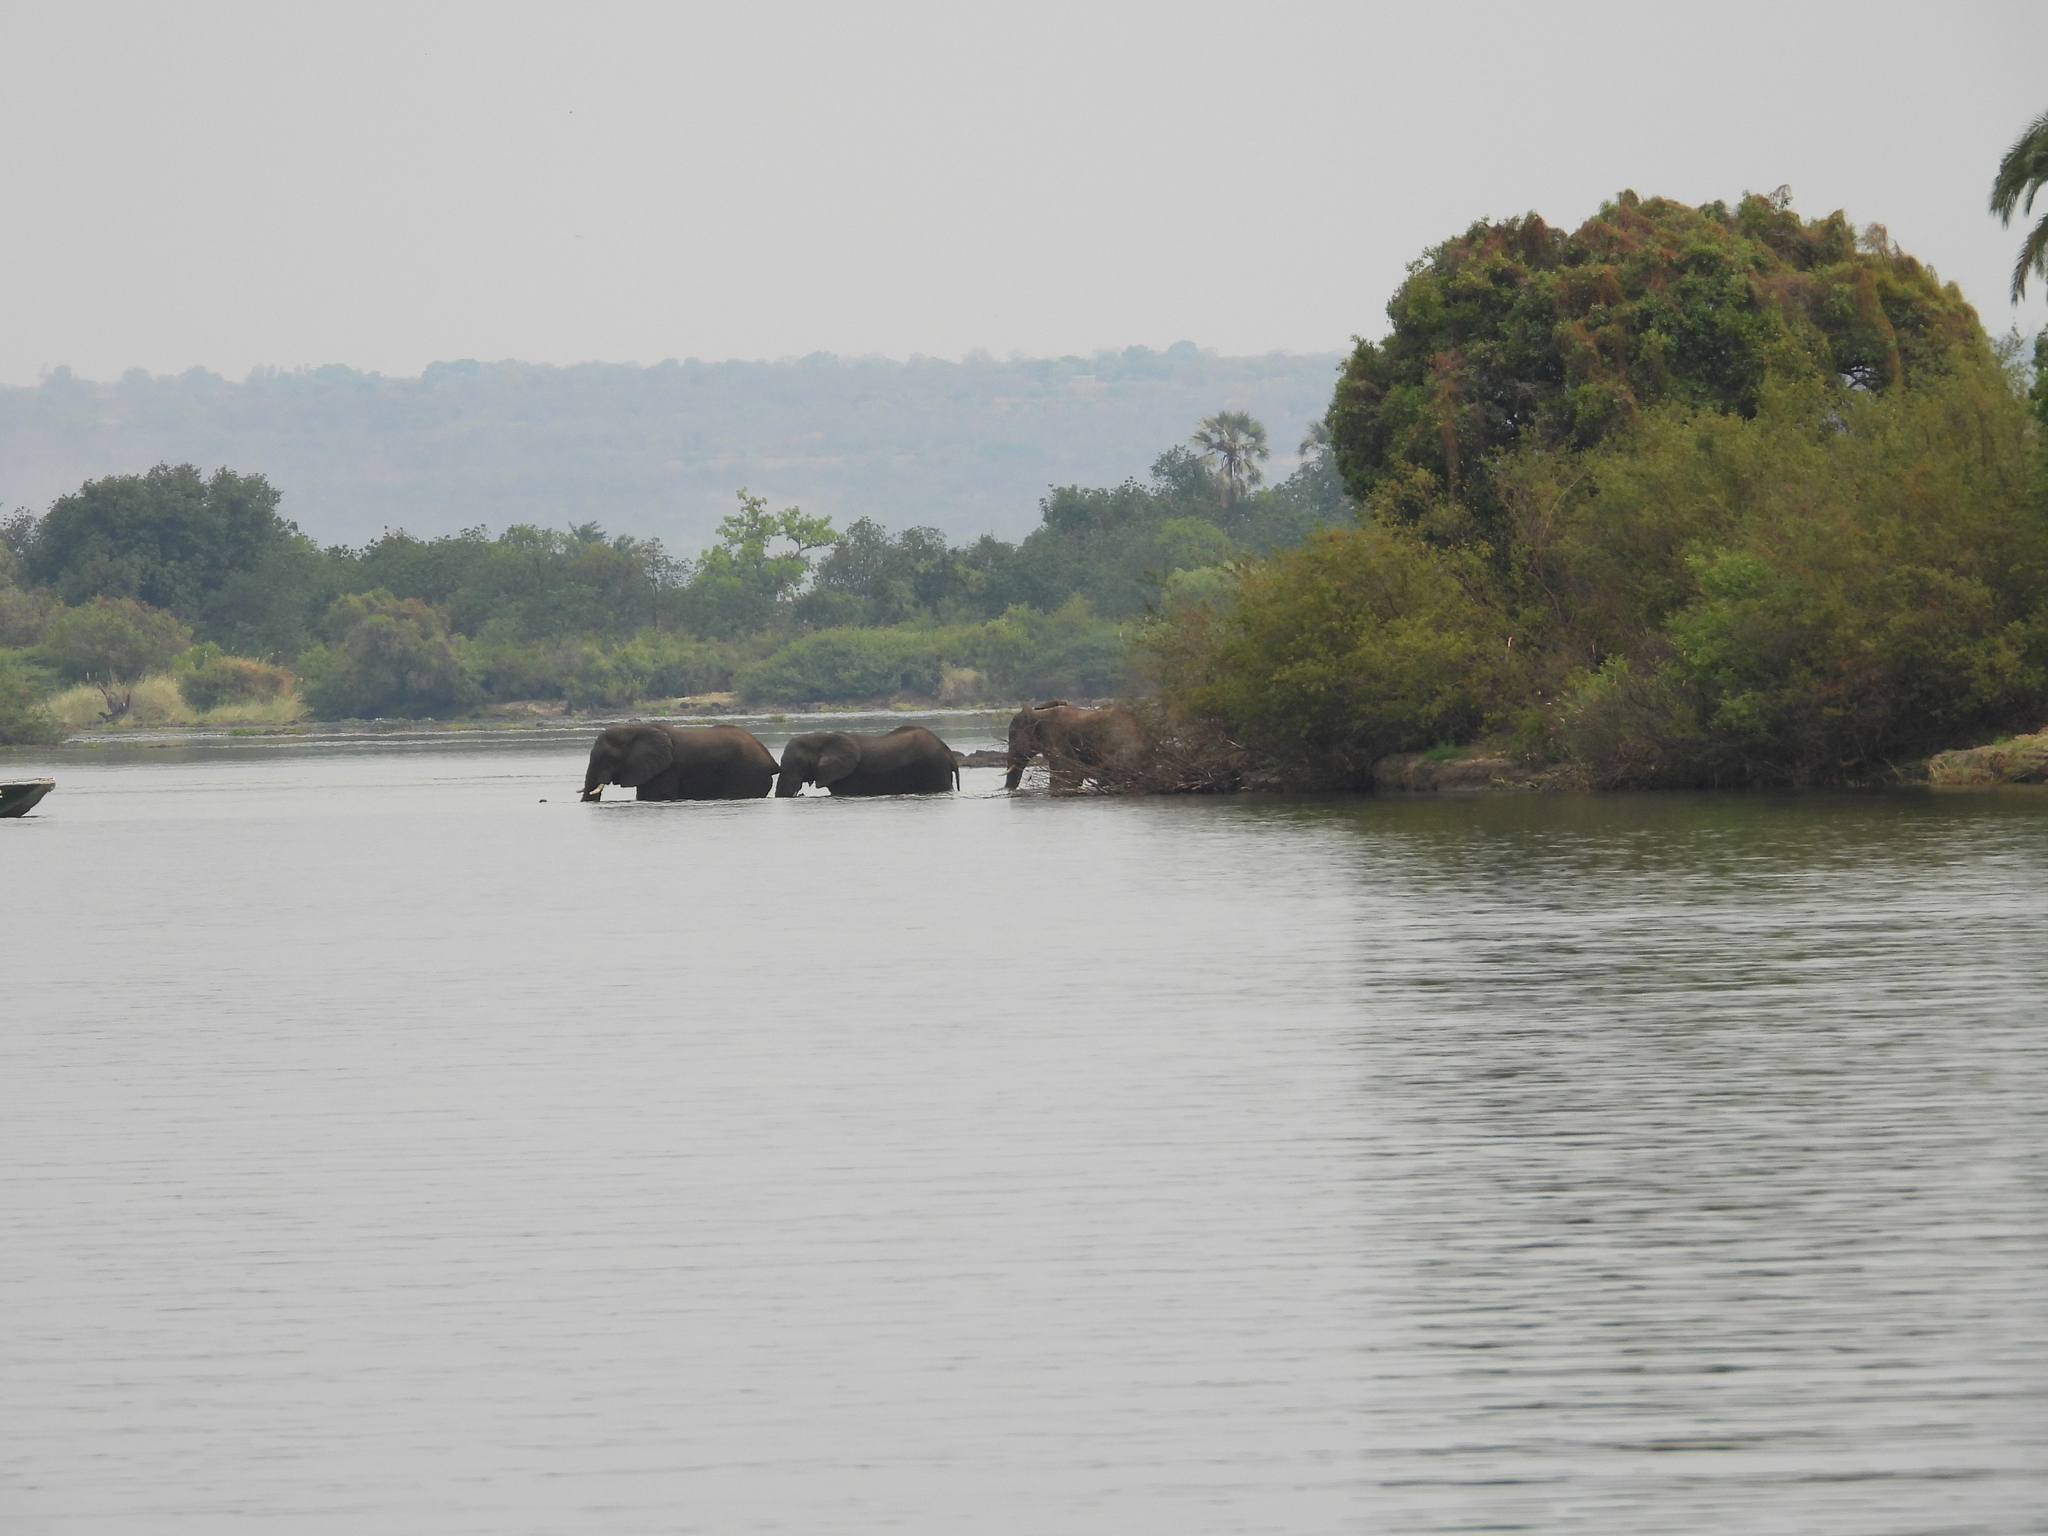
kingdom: Animalia
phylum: Chordata
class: Mammalia
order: Proboscidea
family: Elephantidae
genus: Loxodonta
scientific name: Loxodonta africana
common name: African elephant
